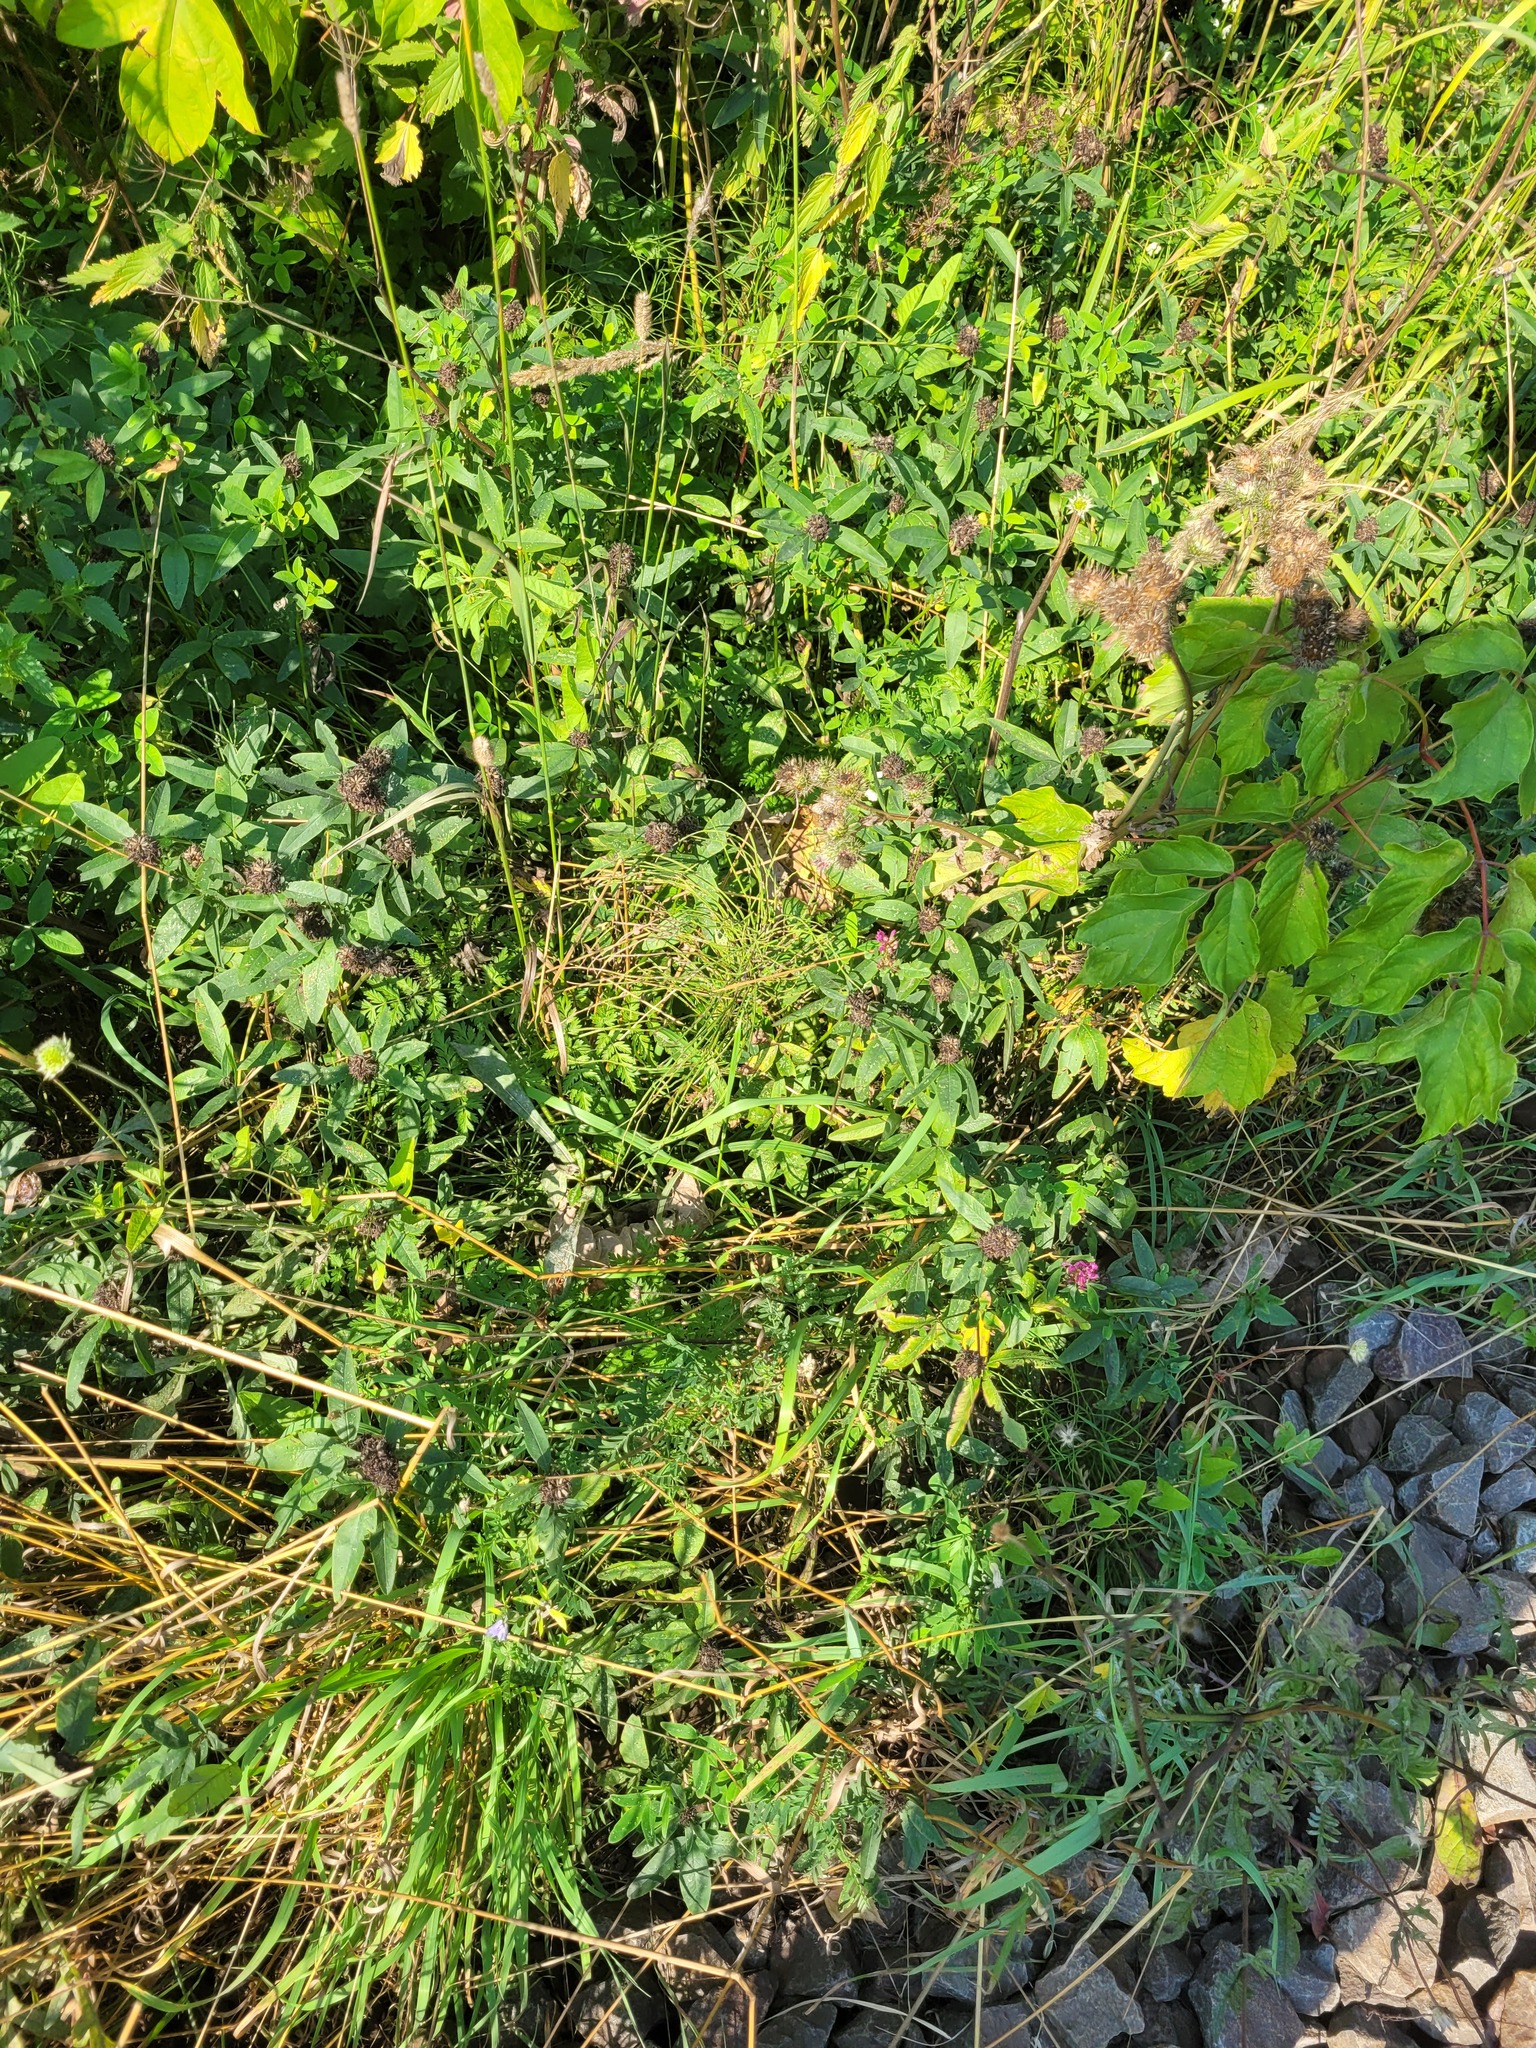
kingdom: Plantae
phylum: Tracheophyta
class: Magnoliopsida
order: Fabales
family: Fabaceae
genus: Trifolium
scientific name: Trifolium medium
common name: Zigzag clover
